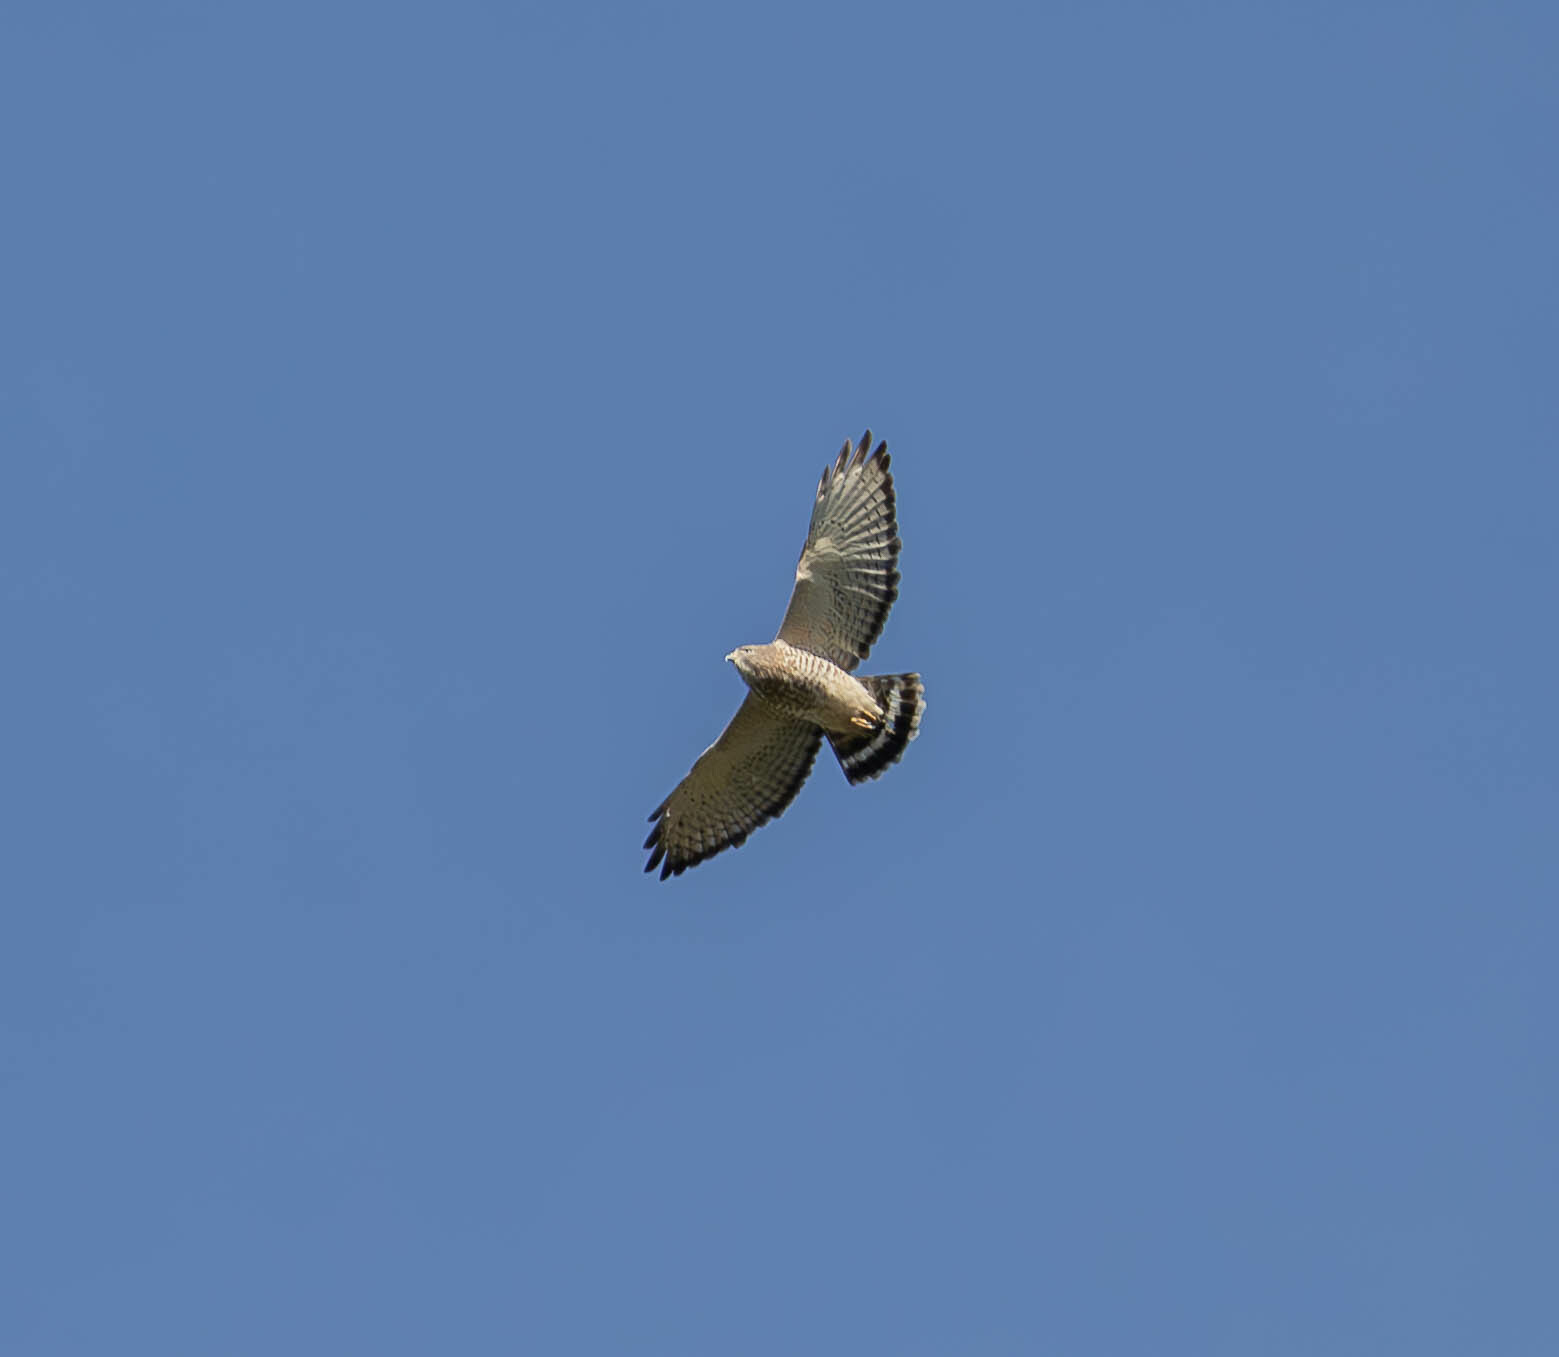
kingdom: Animalia
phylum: Chordata
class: Aves
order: Accipitriformes
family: Accipitridae
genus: Buteo
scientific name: Buteo platypterus
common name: Broad-winged hawk
